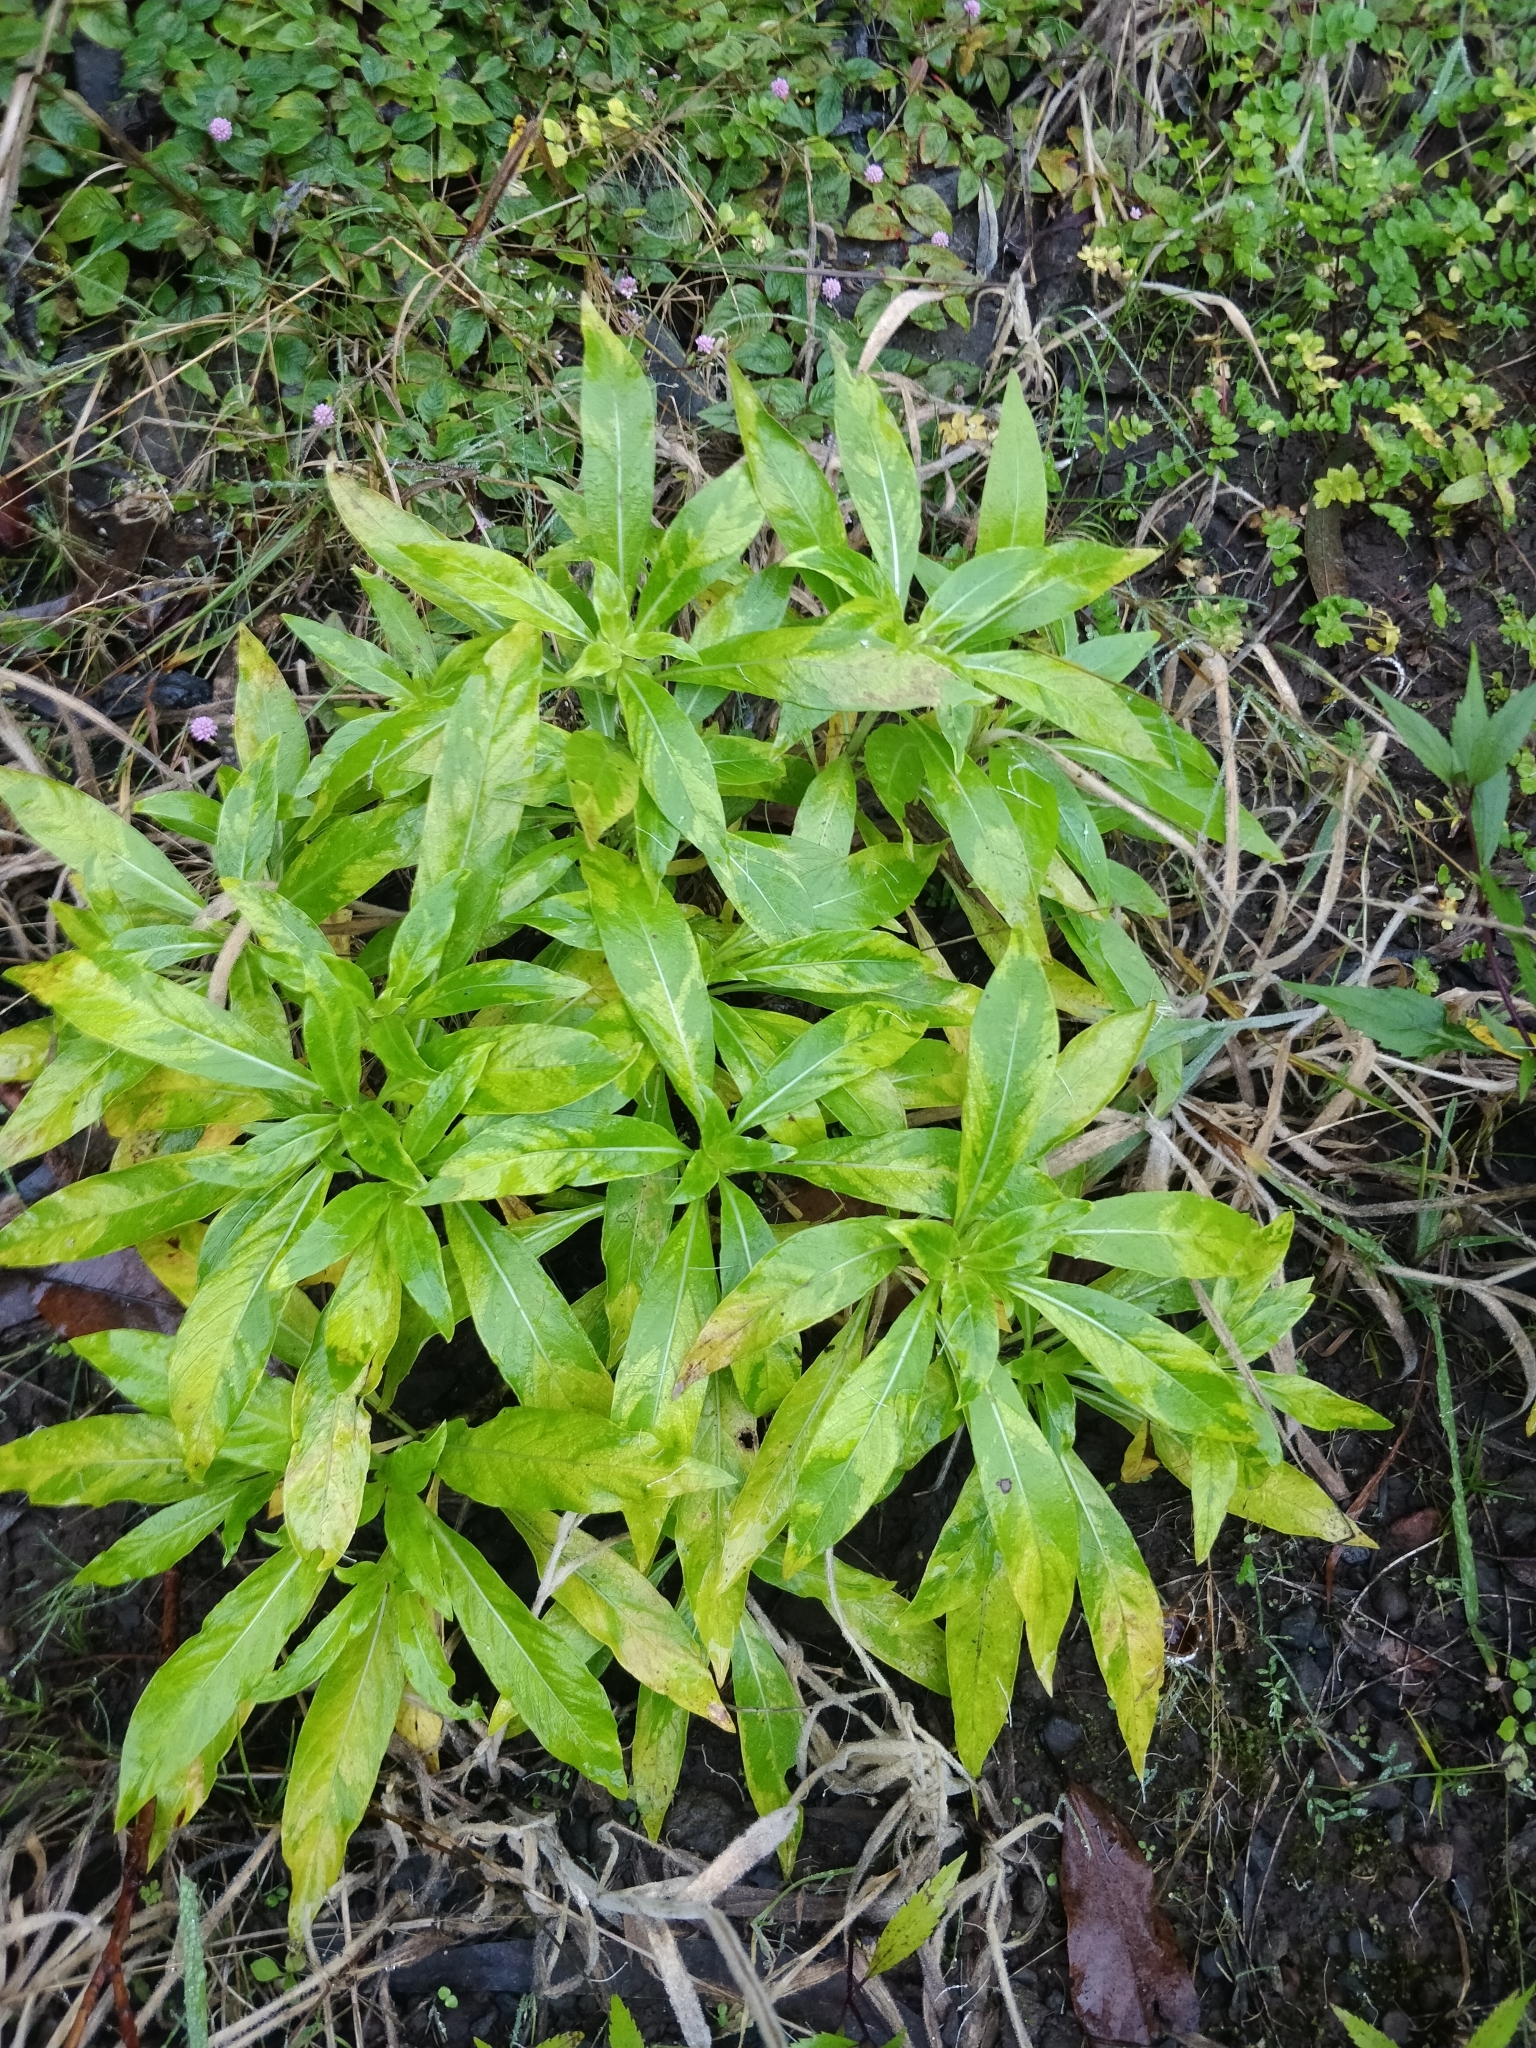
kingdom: Plantae
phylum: Tracheophyta
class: Magnoliopsida
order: Gentianales
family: Rubiaceae
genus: Phyllis
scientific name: Phyllis nobla
